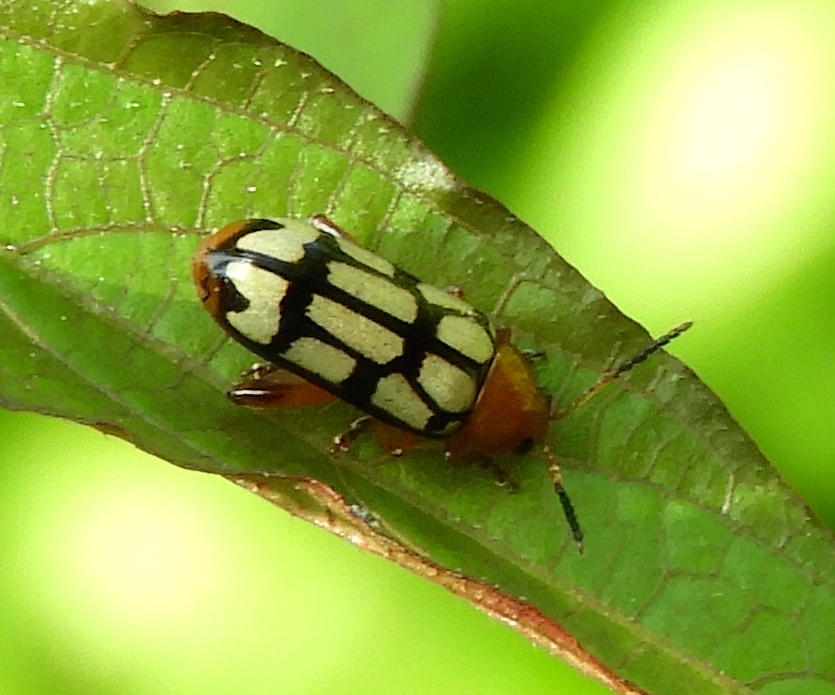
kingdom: Animalia
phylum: Arthropoda
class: Insecta
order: Coleoptera
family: Chrysomelidae
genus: Disonycha
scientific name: Disonycha
